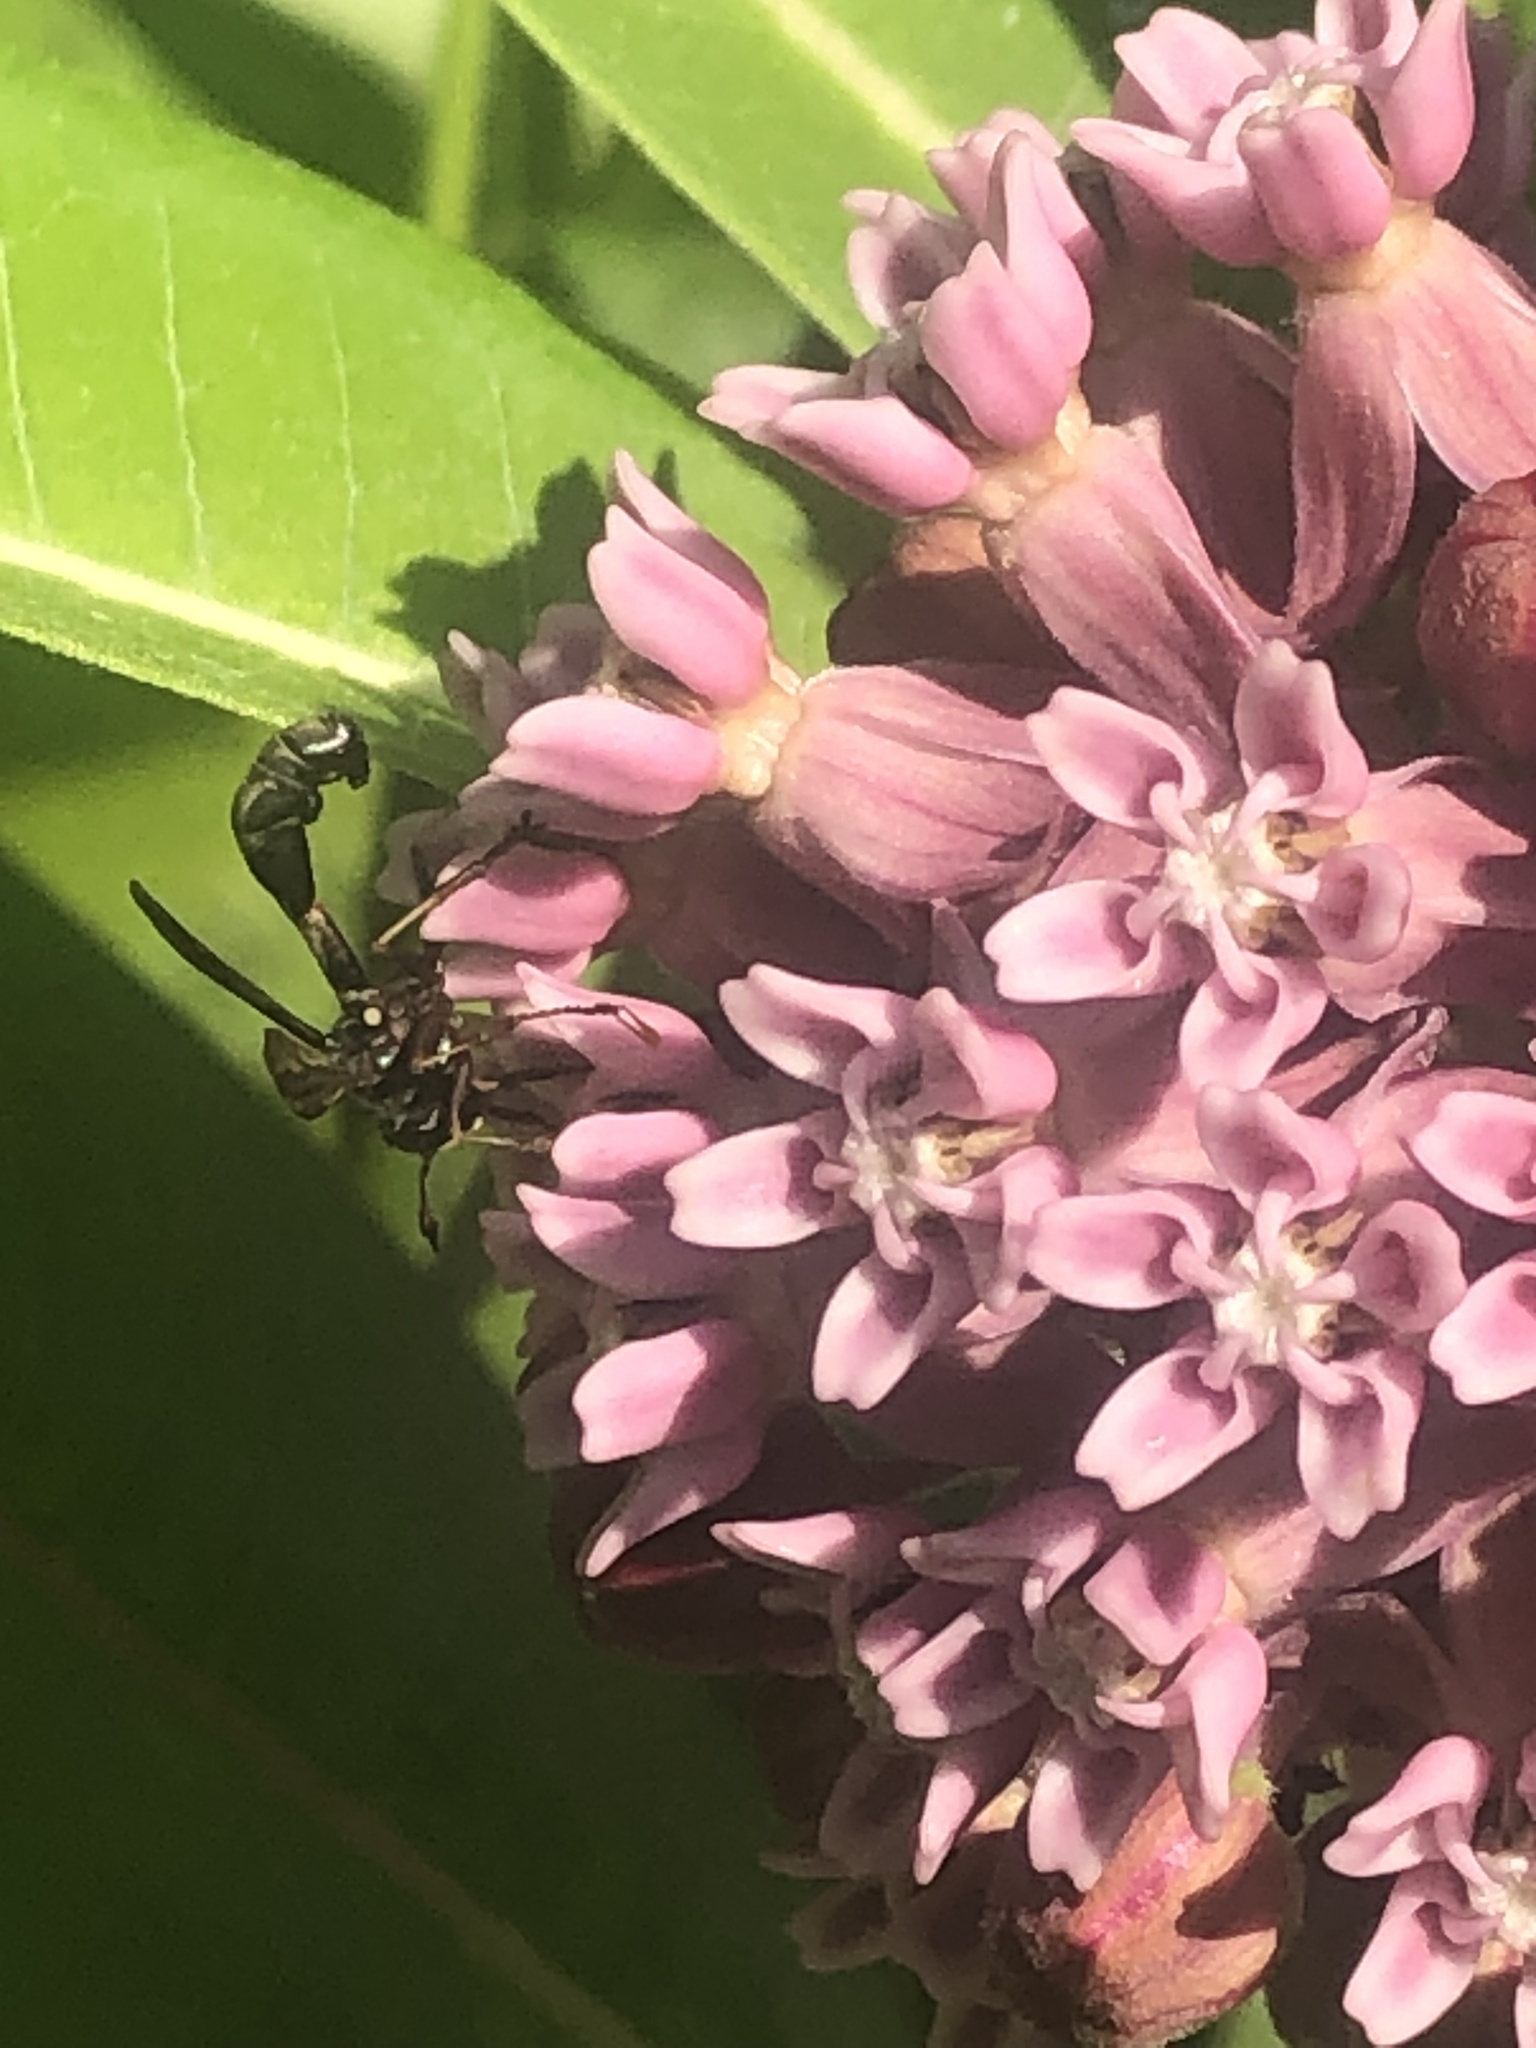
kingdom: Animalia
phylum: Arthropoda
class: Insecta
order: Diptera
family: Conopidae
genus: Physocephala
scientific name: Physocephala furcillata
